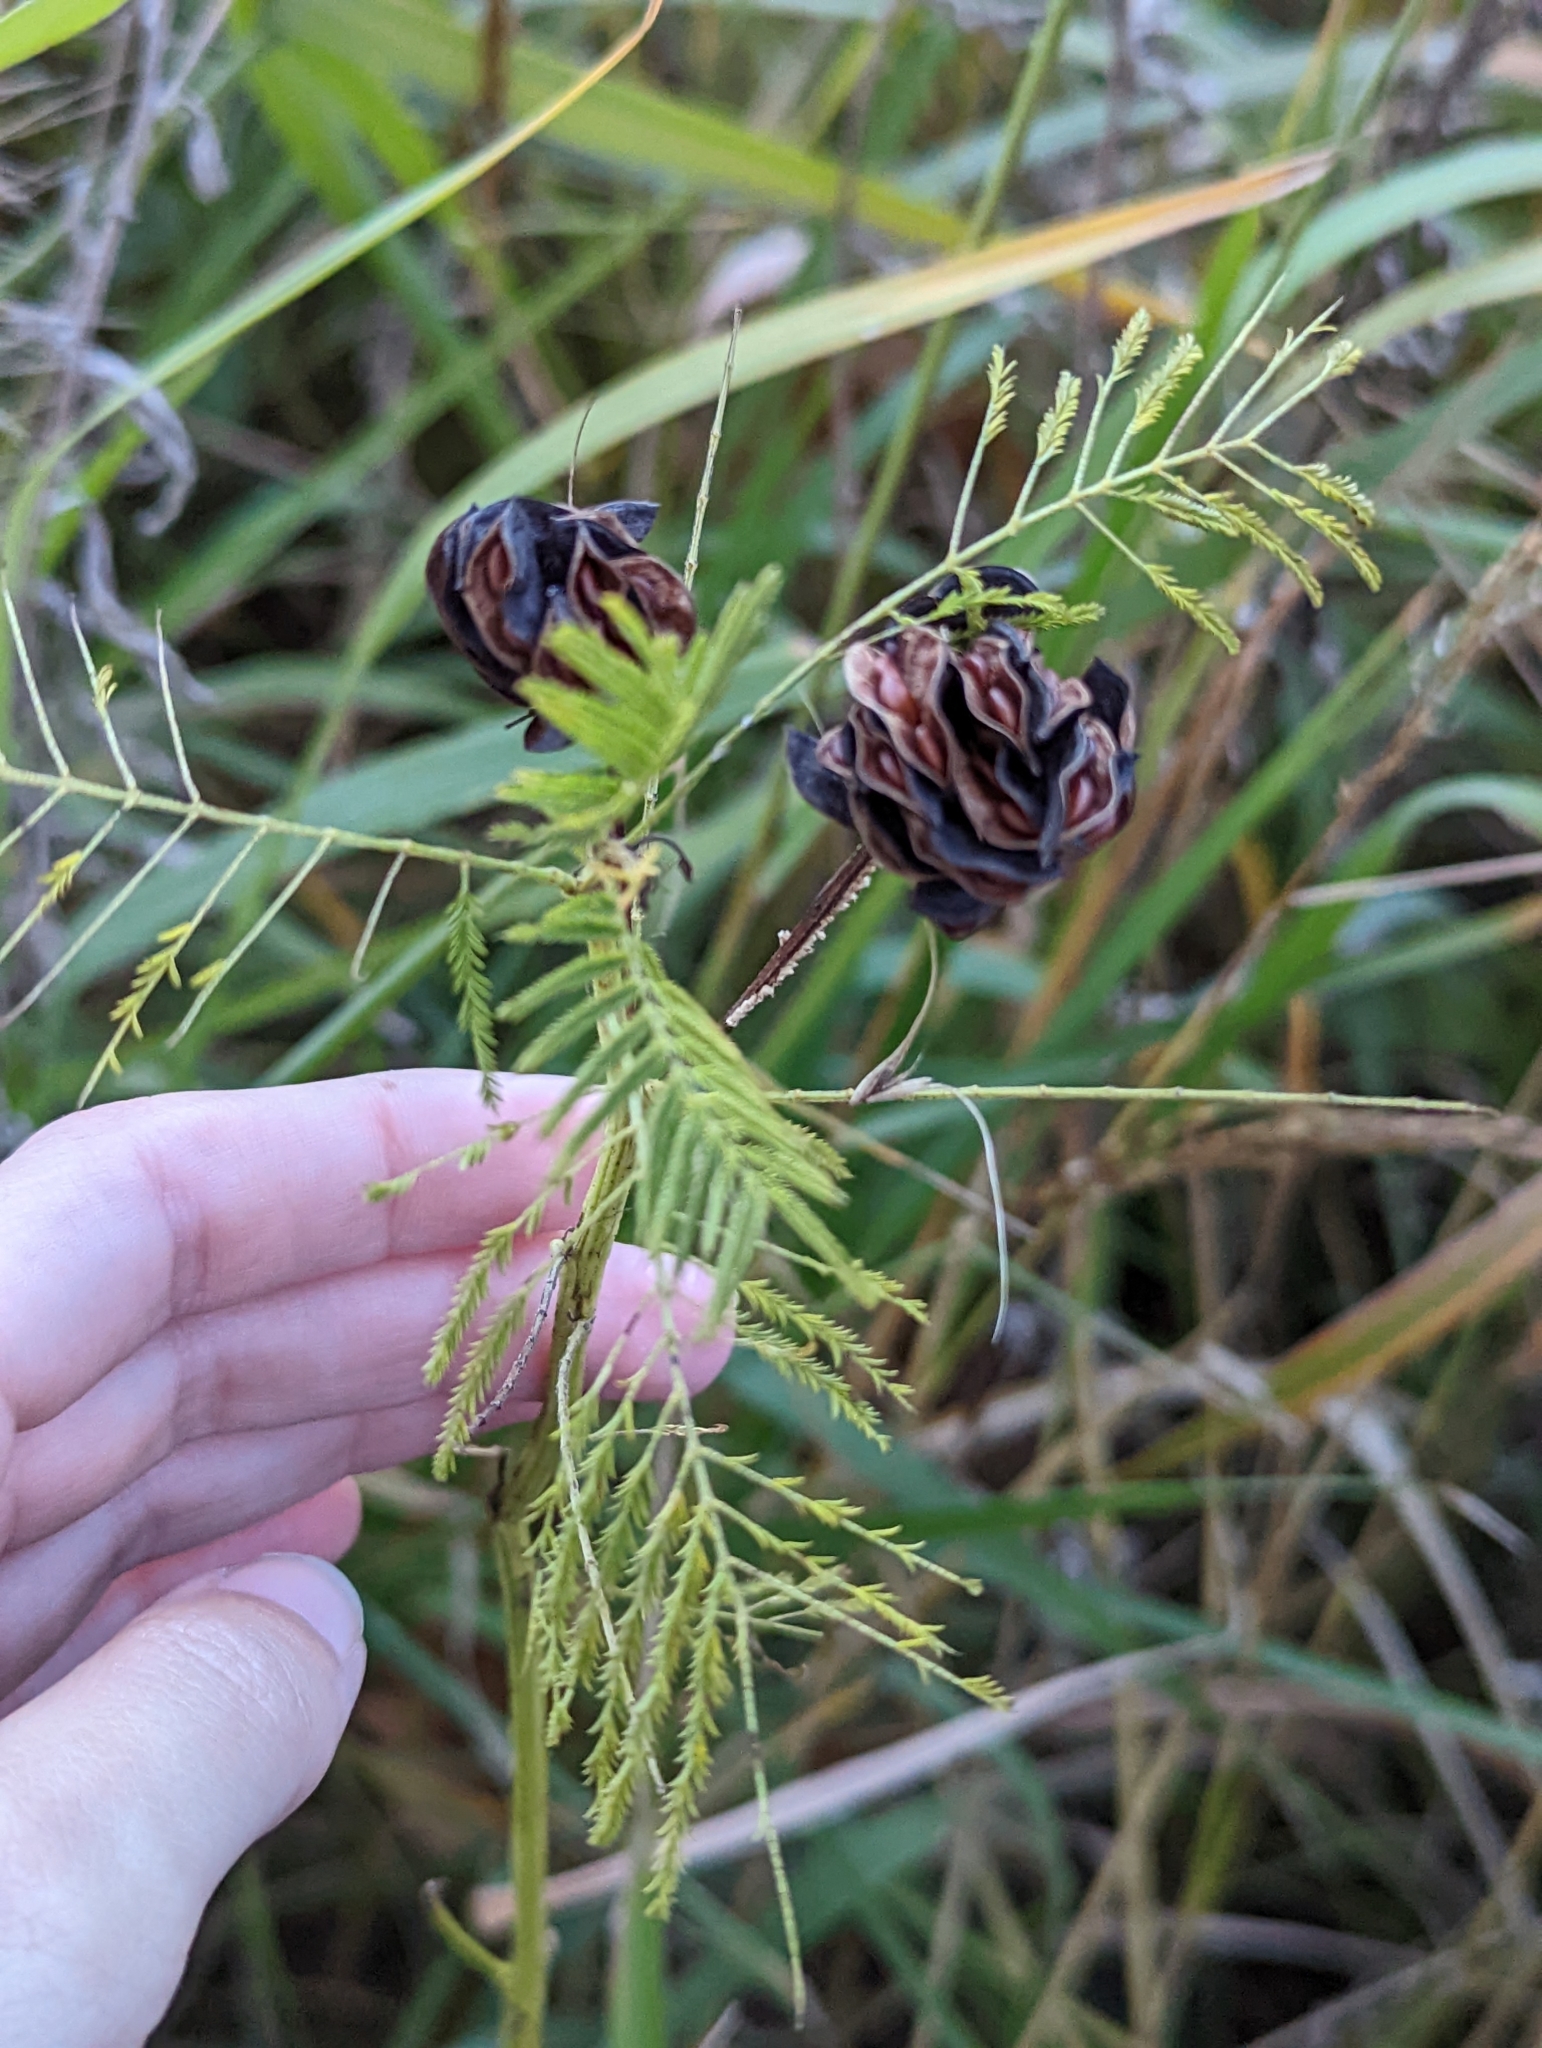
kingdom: Plantae
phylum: Tracheophyta
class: Magnoliopsida
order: Fabales
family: Fabaceae
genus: Desmanthus
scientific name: Desmanthus illinoensis
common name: Illinois bundle-flower
